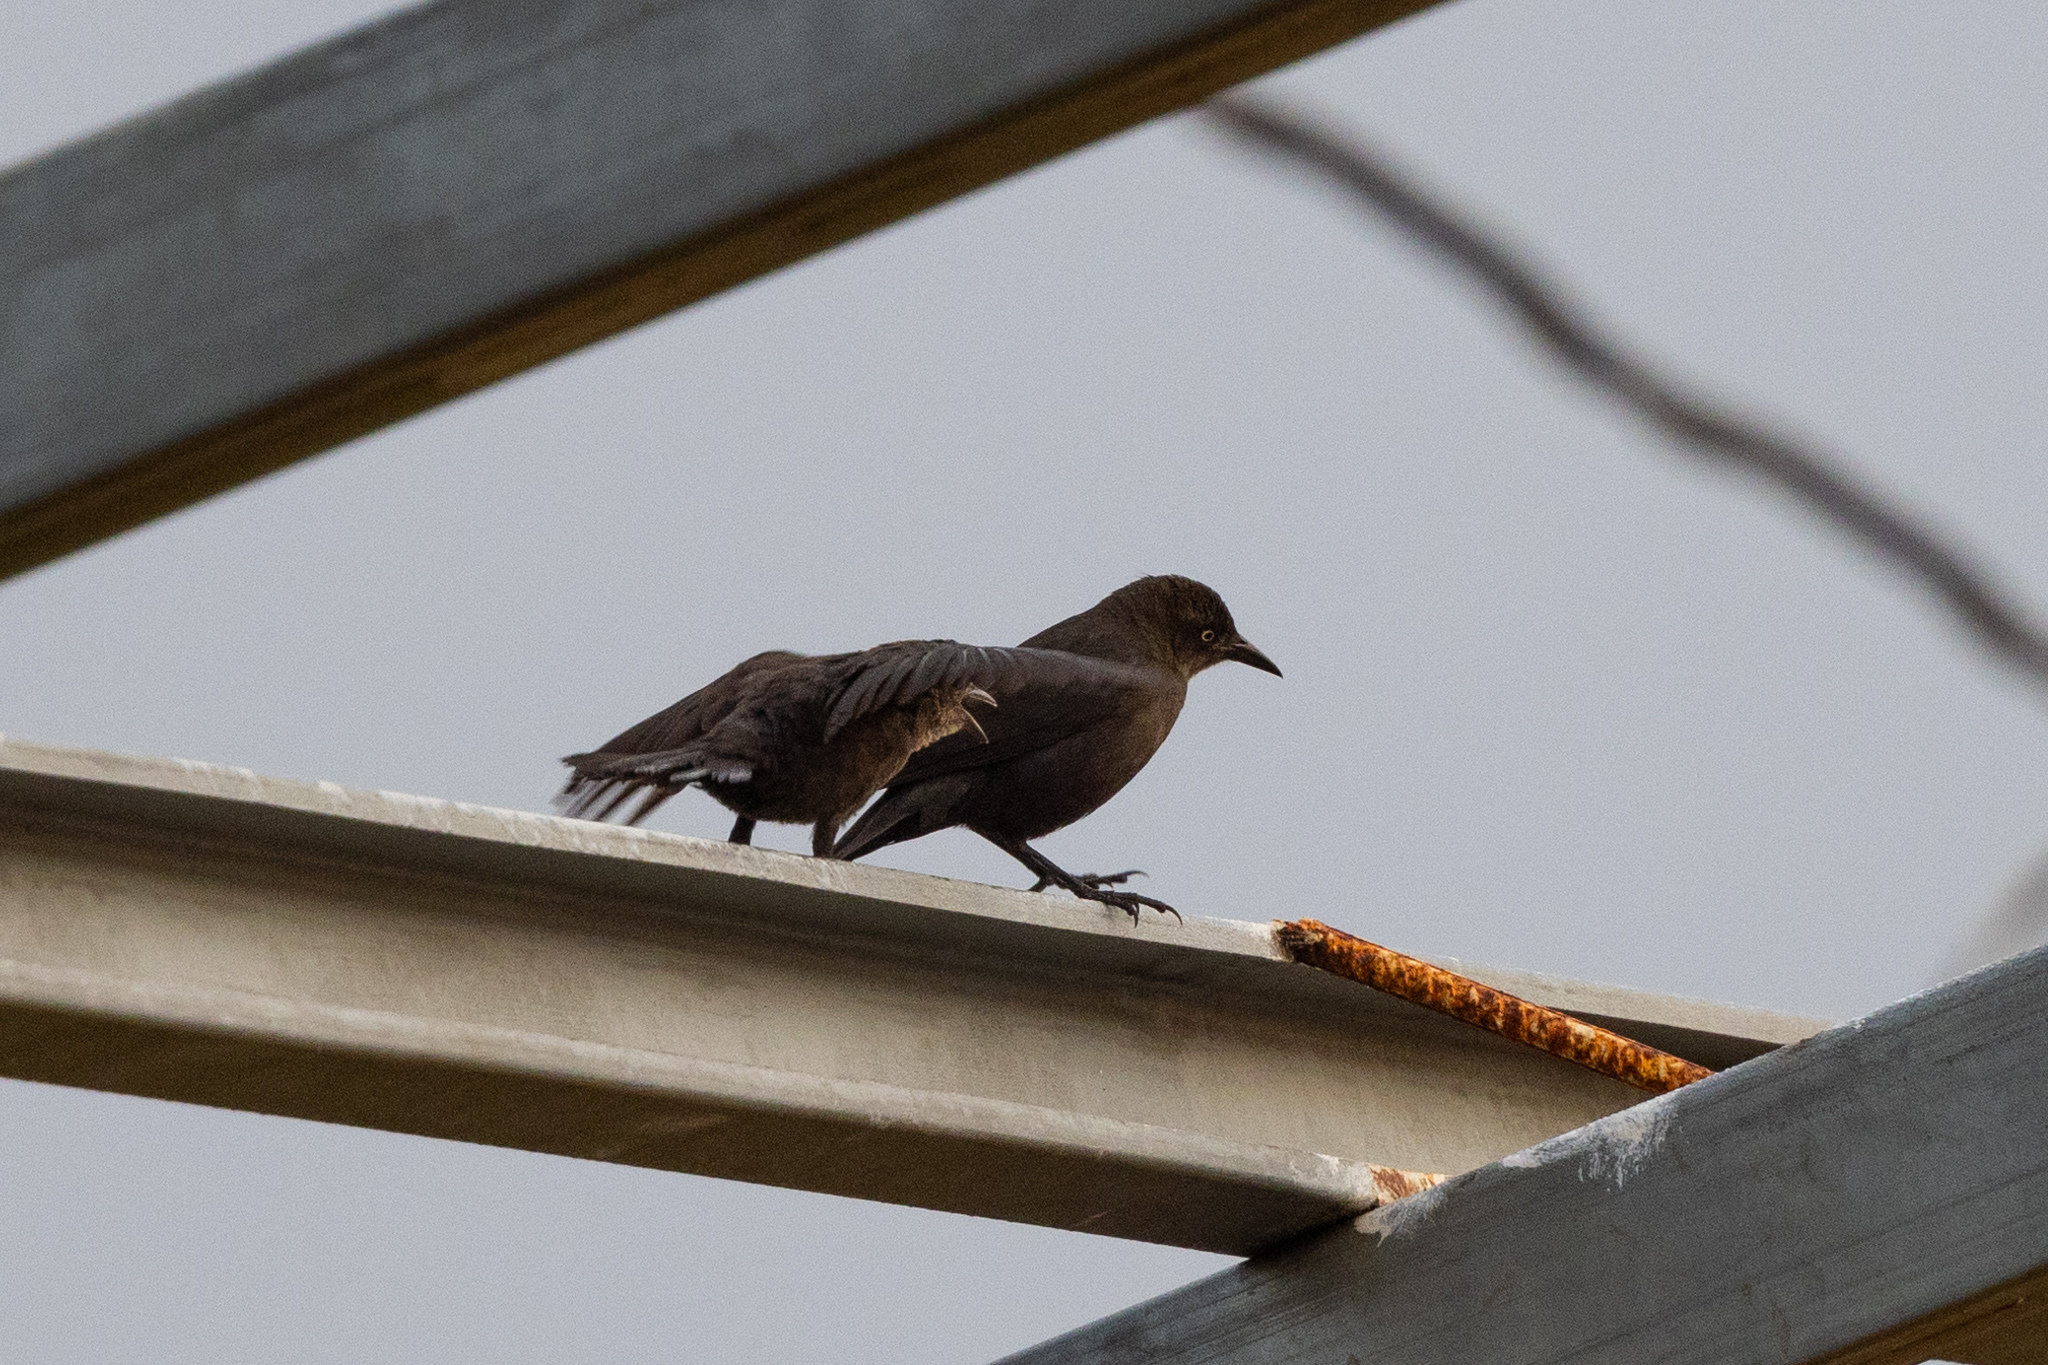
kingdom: Animalia
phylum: Chordata
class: Aves
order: Passeriformes
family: Icteridae
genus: Quiscalus
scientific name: Quiscalus lugubris
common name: Carib grackle
